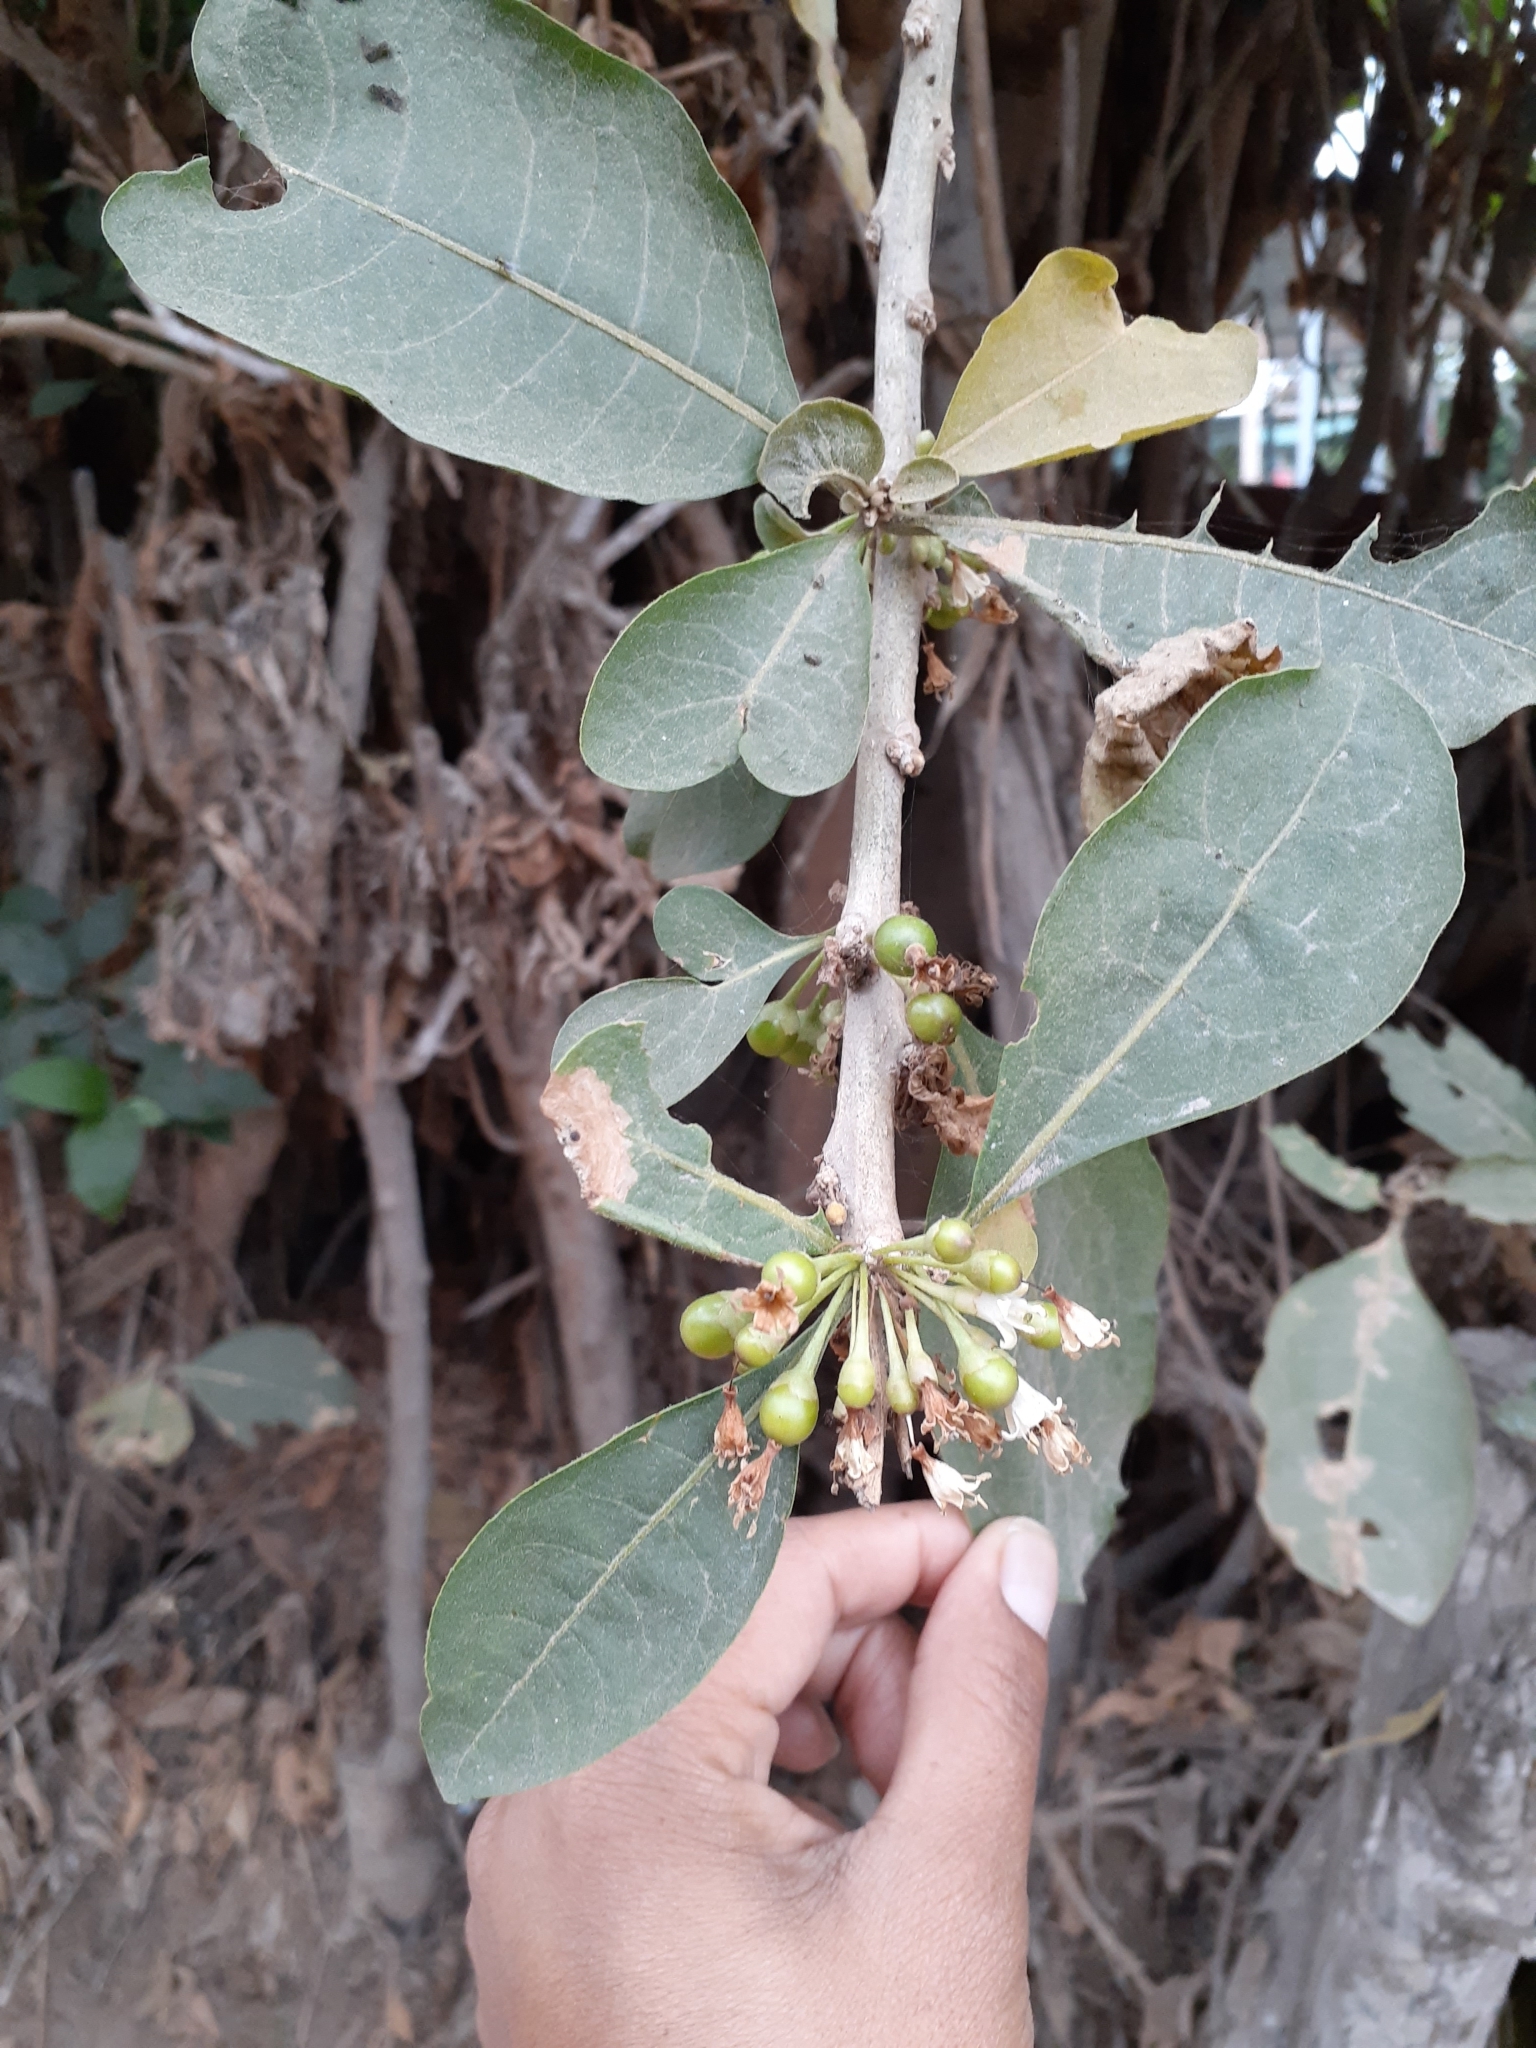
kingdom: Plantae
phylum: Tracheophyta
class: Magnoliopsida
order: Solanales
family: Solanaceae
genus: Iochroma
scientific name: Iochroma arborescens
